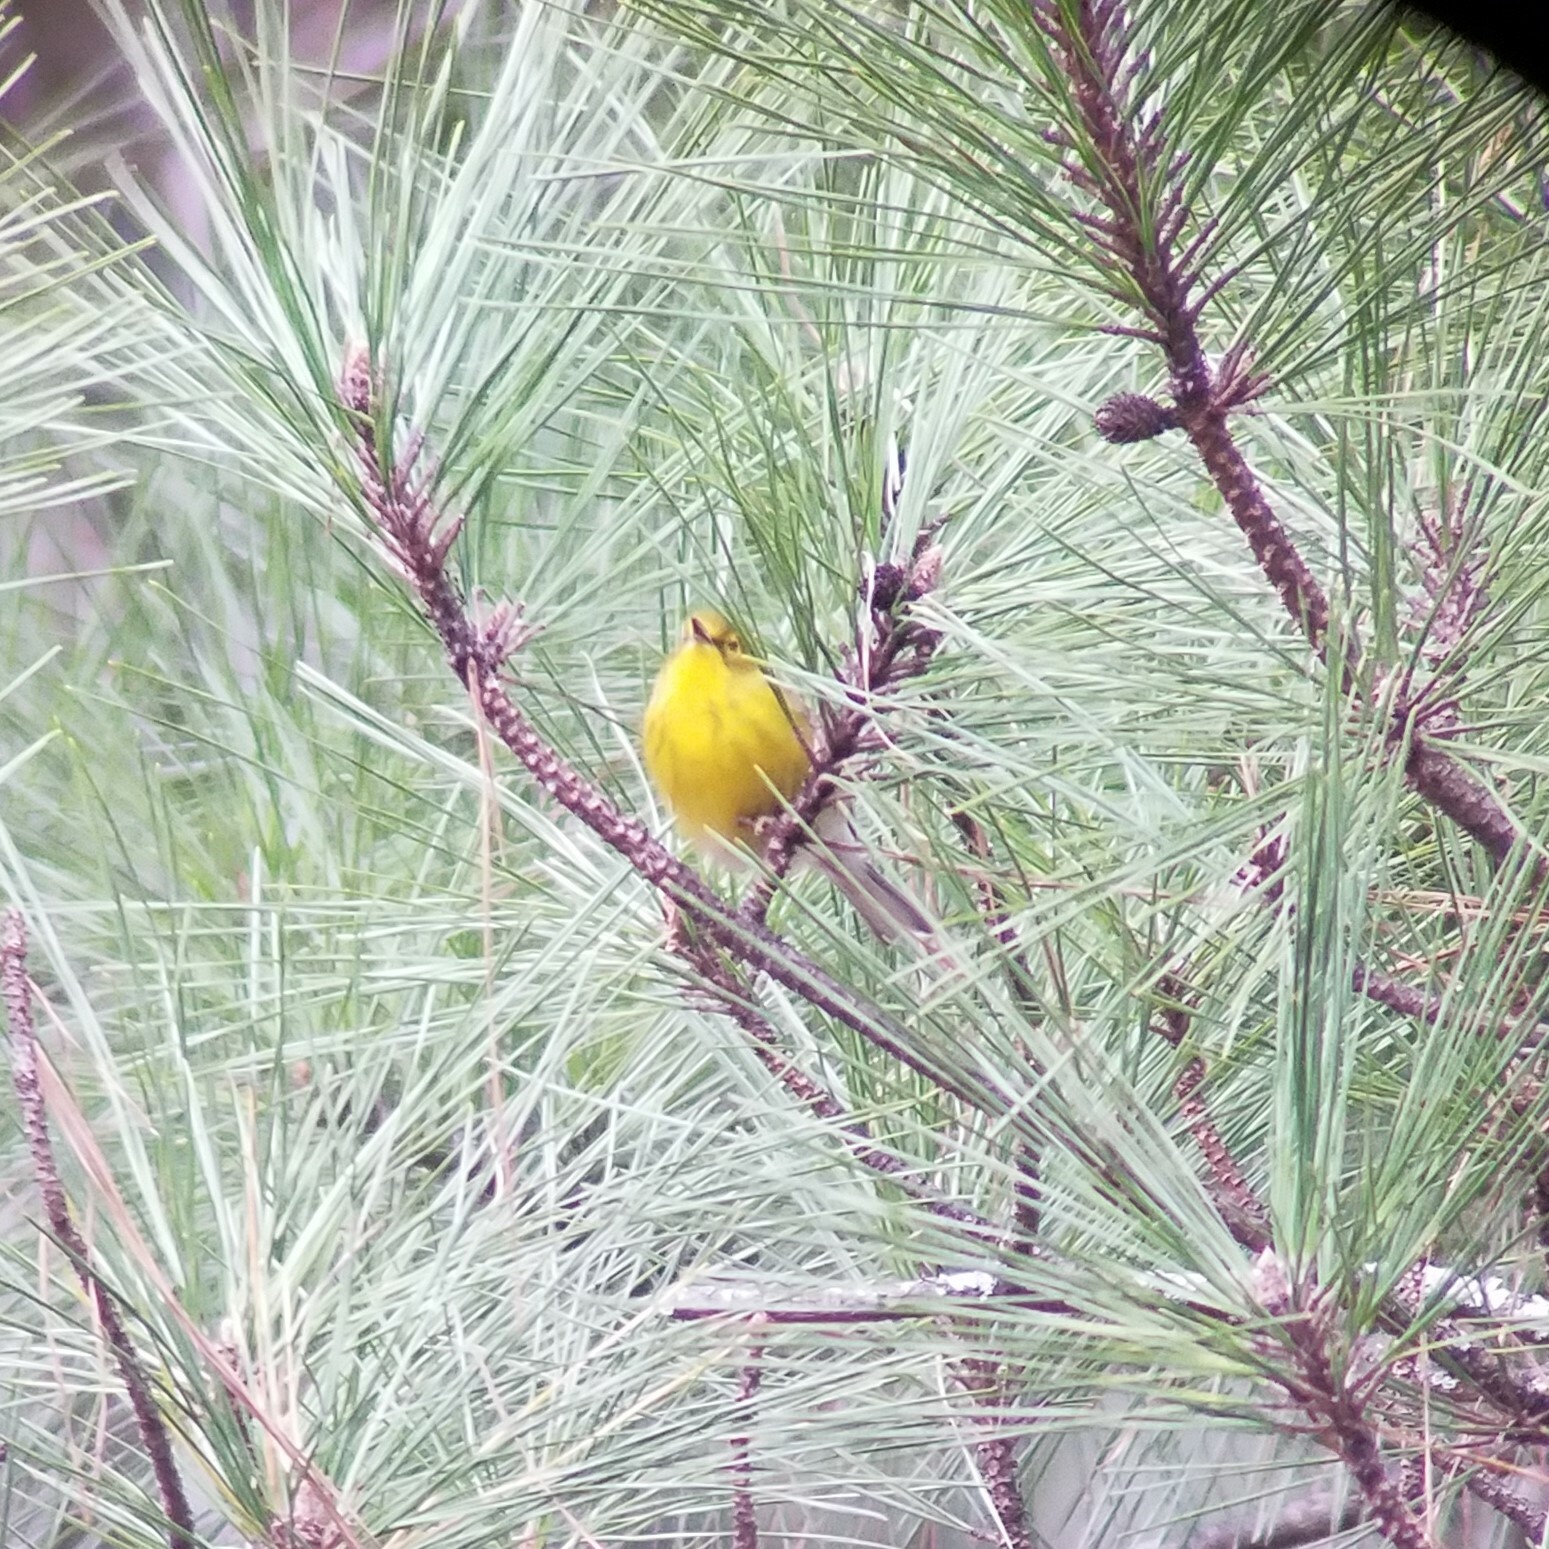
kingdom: Animalia
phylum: Chordata
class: Aves
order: Passeriformes
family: Parulidae
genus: Setophaga
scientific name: Setophaga pinus
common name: Pine warbler
